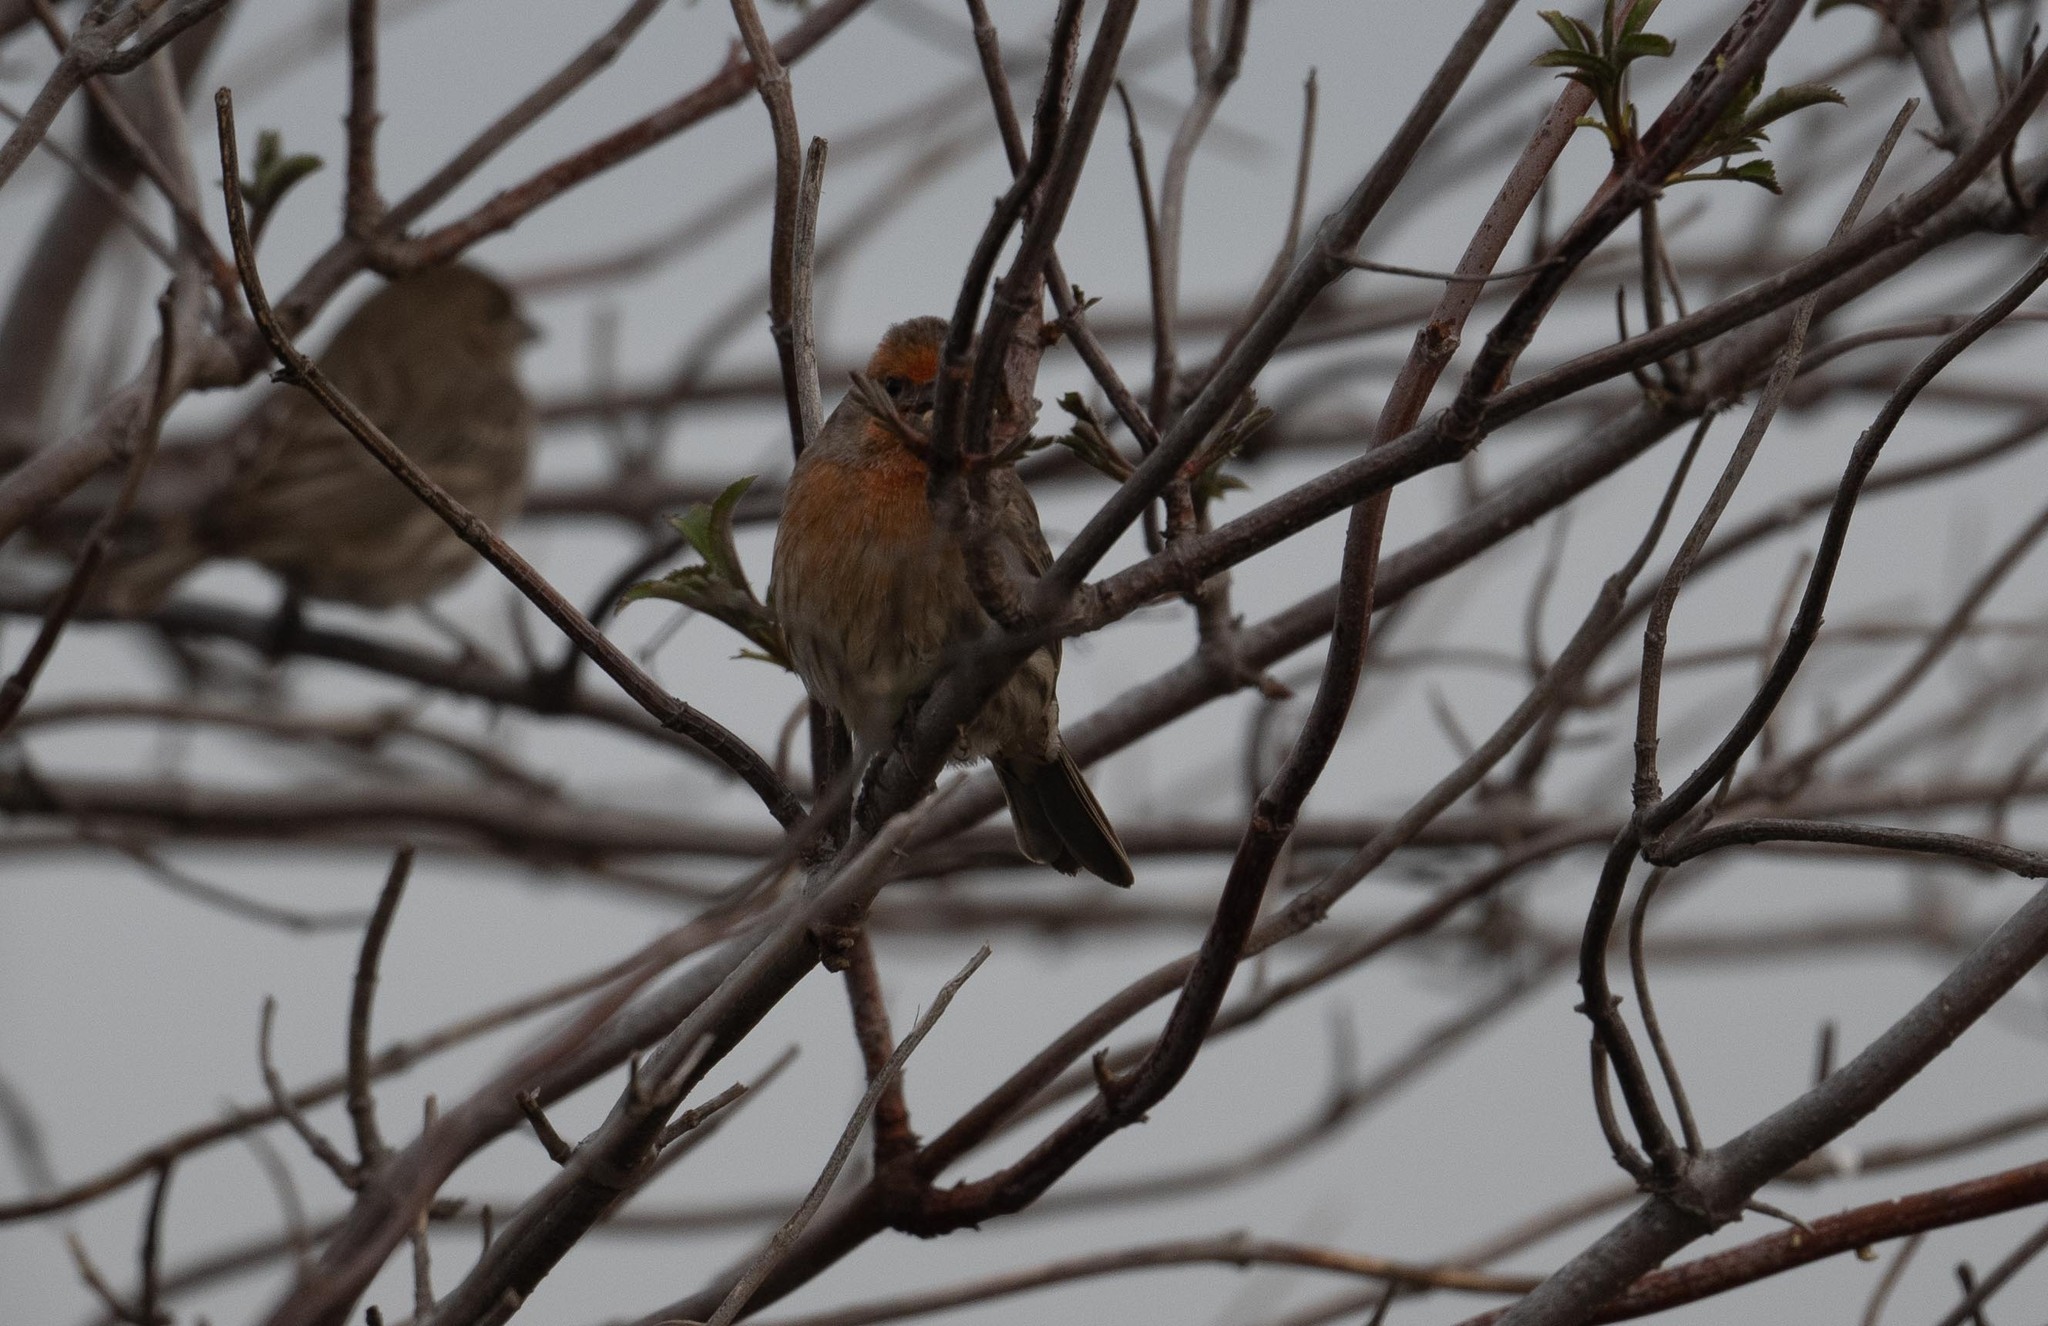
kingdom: Animalia
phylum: Chordata
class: Aves
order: Passeriformes
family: Fringillidae
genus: Haemorhous
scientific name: Haemorhous mexicanus
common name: House finch
